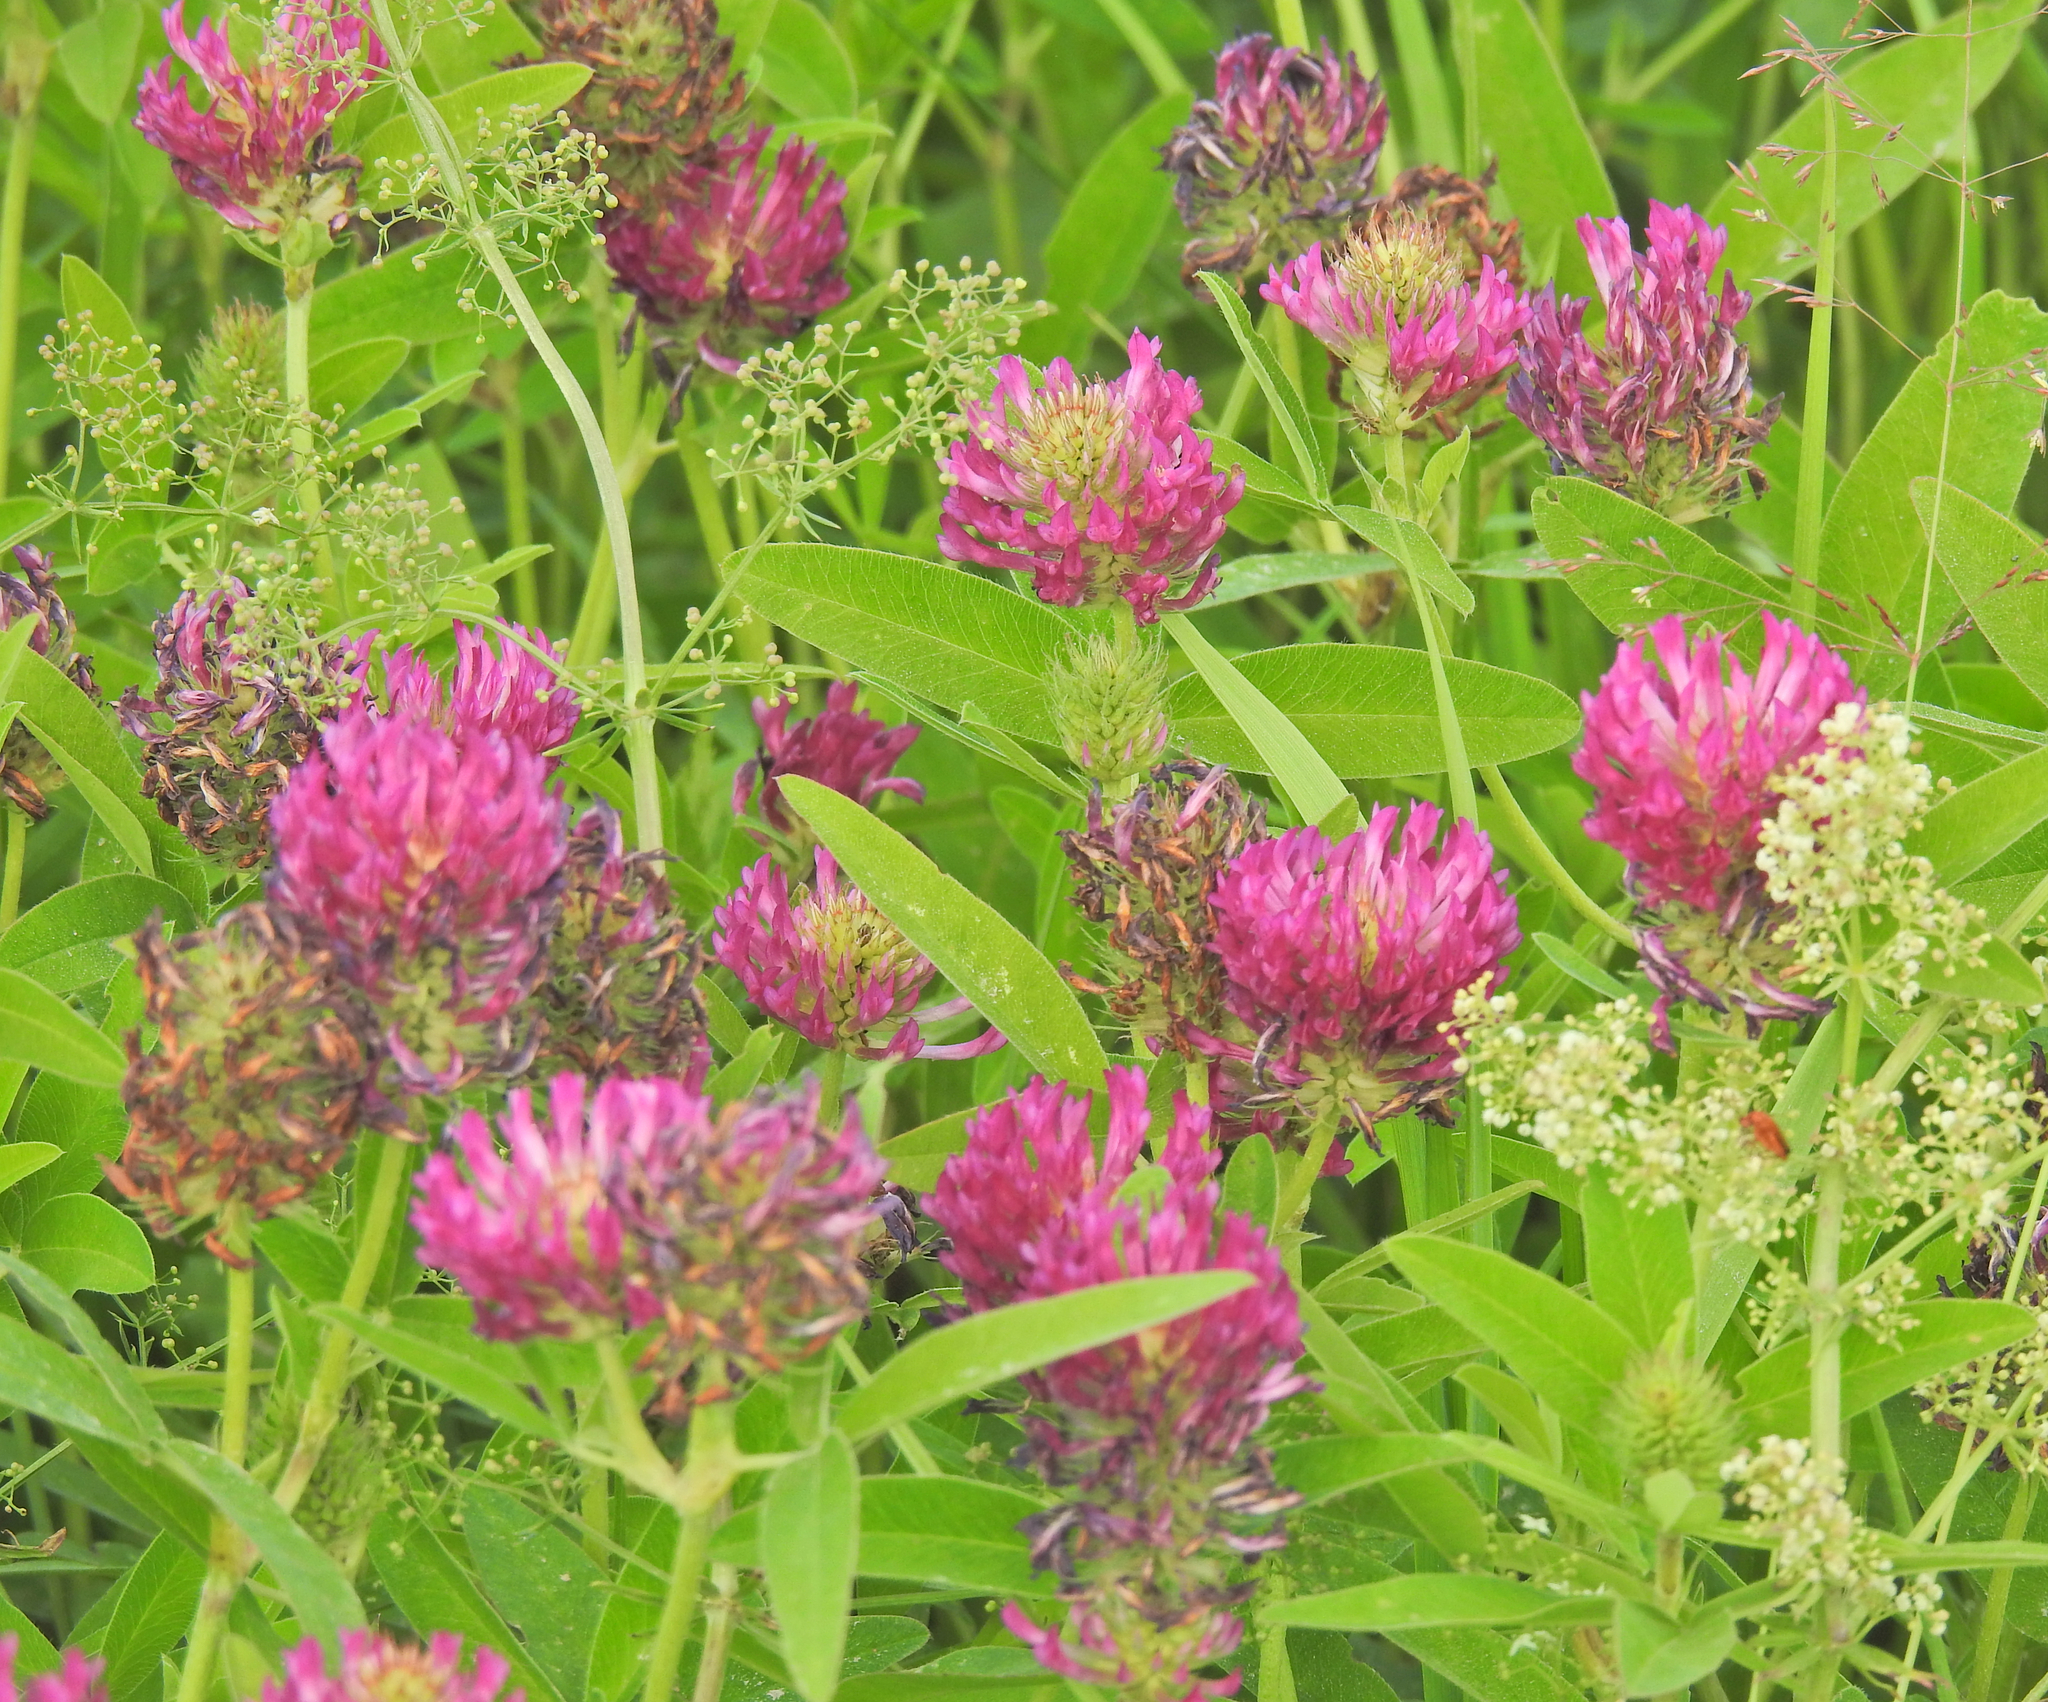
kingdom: Plantae
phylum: Tracheophyta
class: Magnoliopsida
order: Fabales
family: Fabaceae
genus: Trifolium
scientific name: Trifolium medium
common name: Zigzag clover
